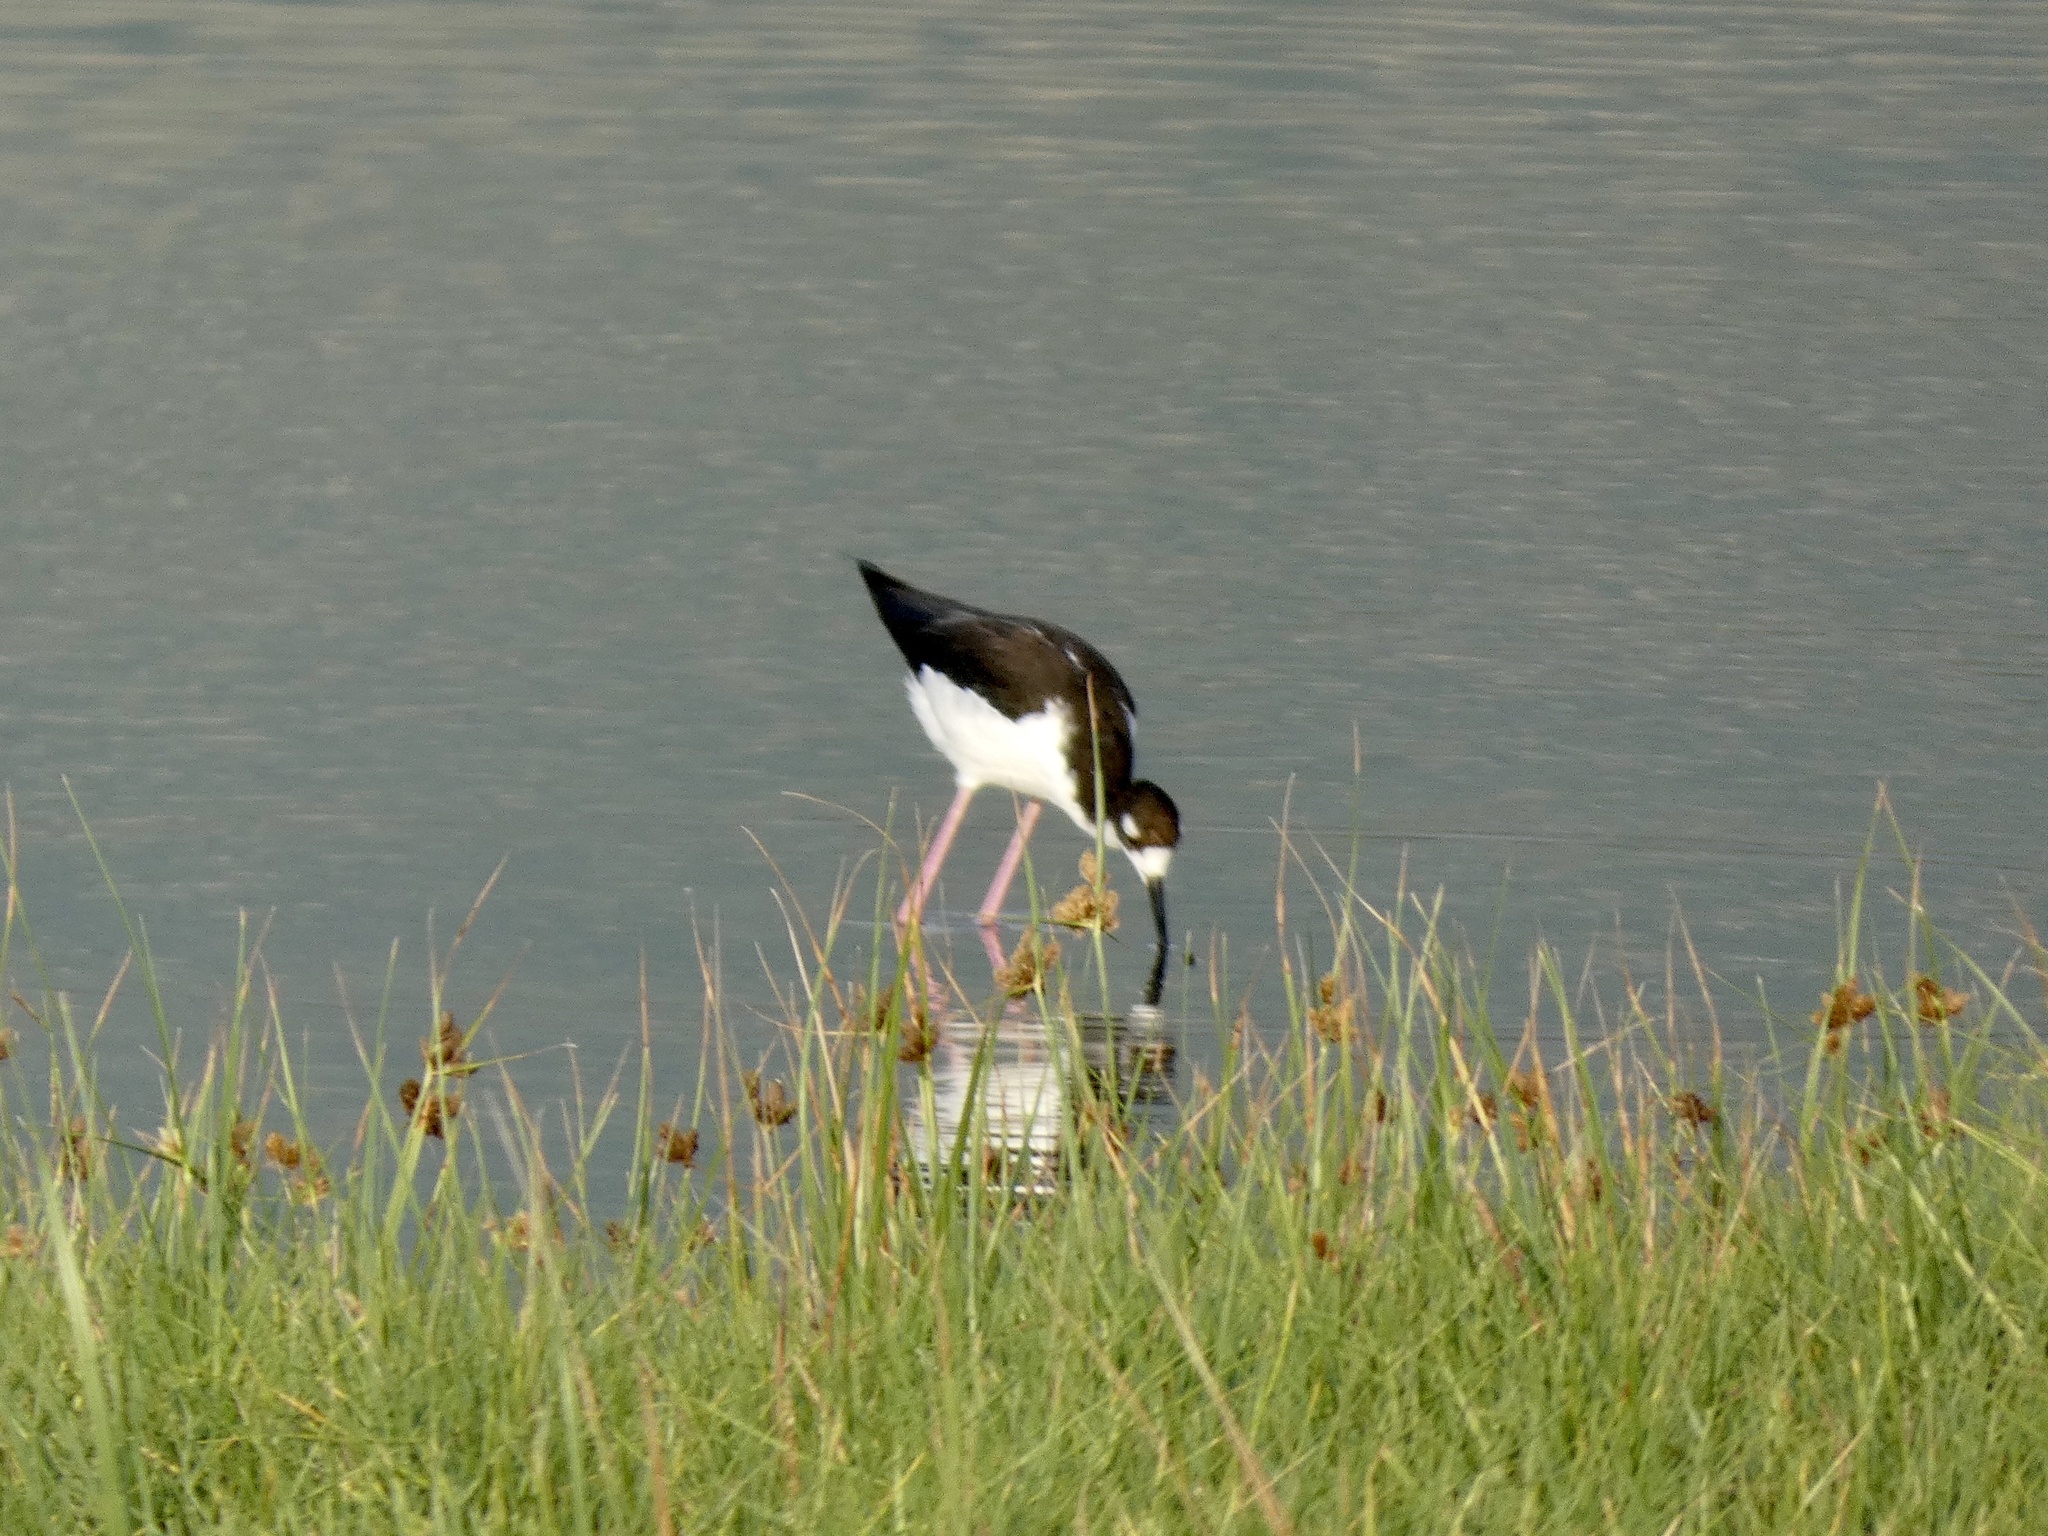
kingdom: Animalia
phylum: Chordata
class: Aves
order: Charadriiformes
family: Recurvirostridae
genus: Himantopus
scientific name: Himantopus mexicanus
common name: Black-necked stilt
